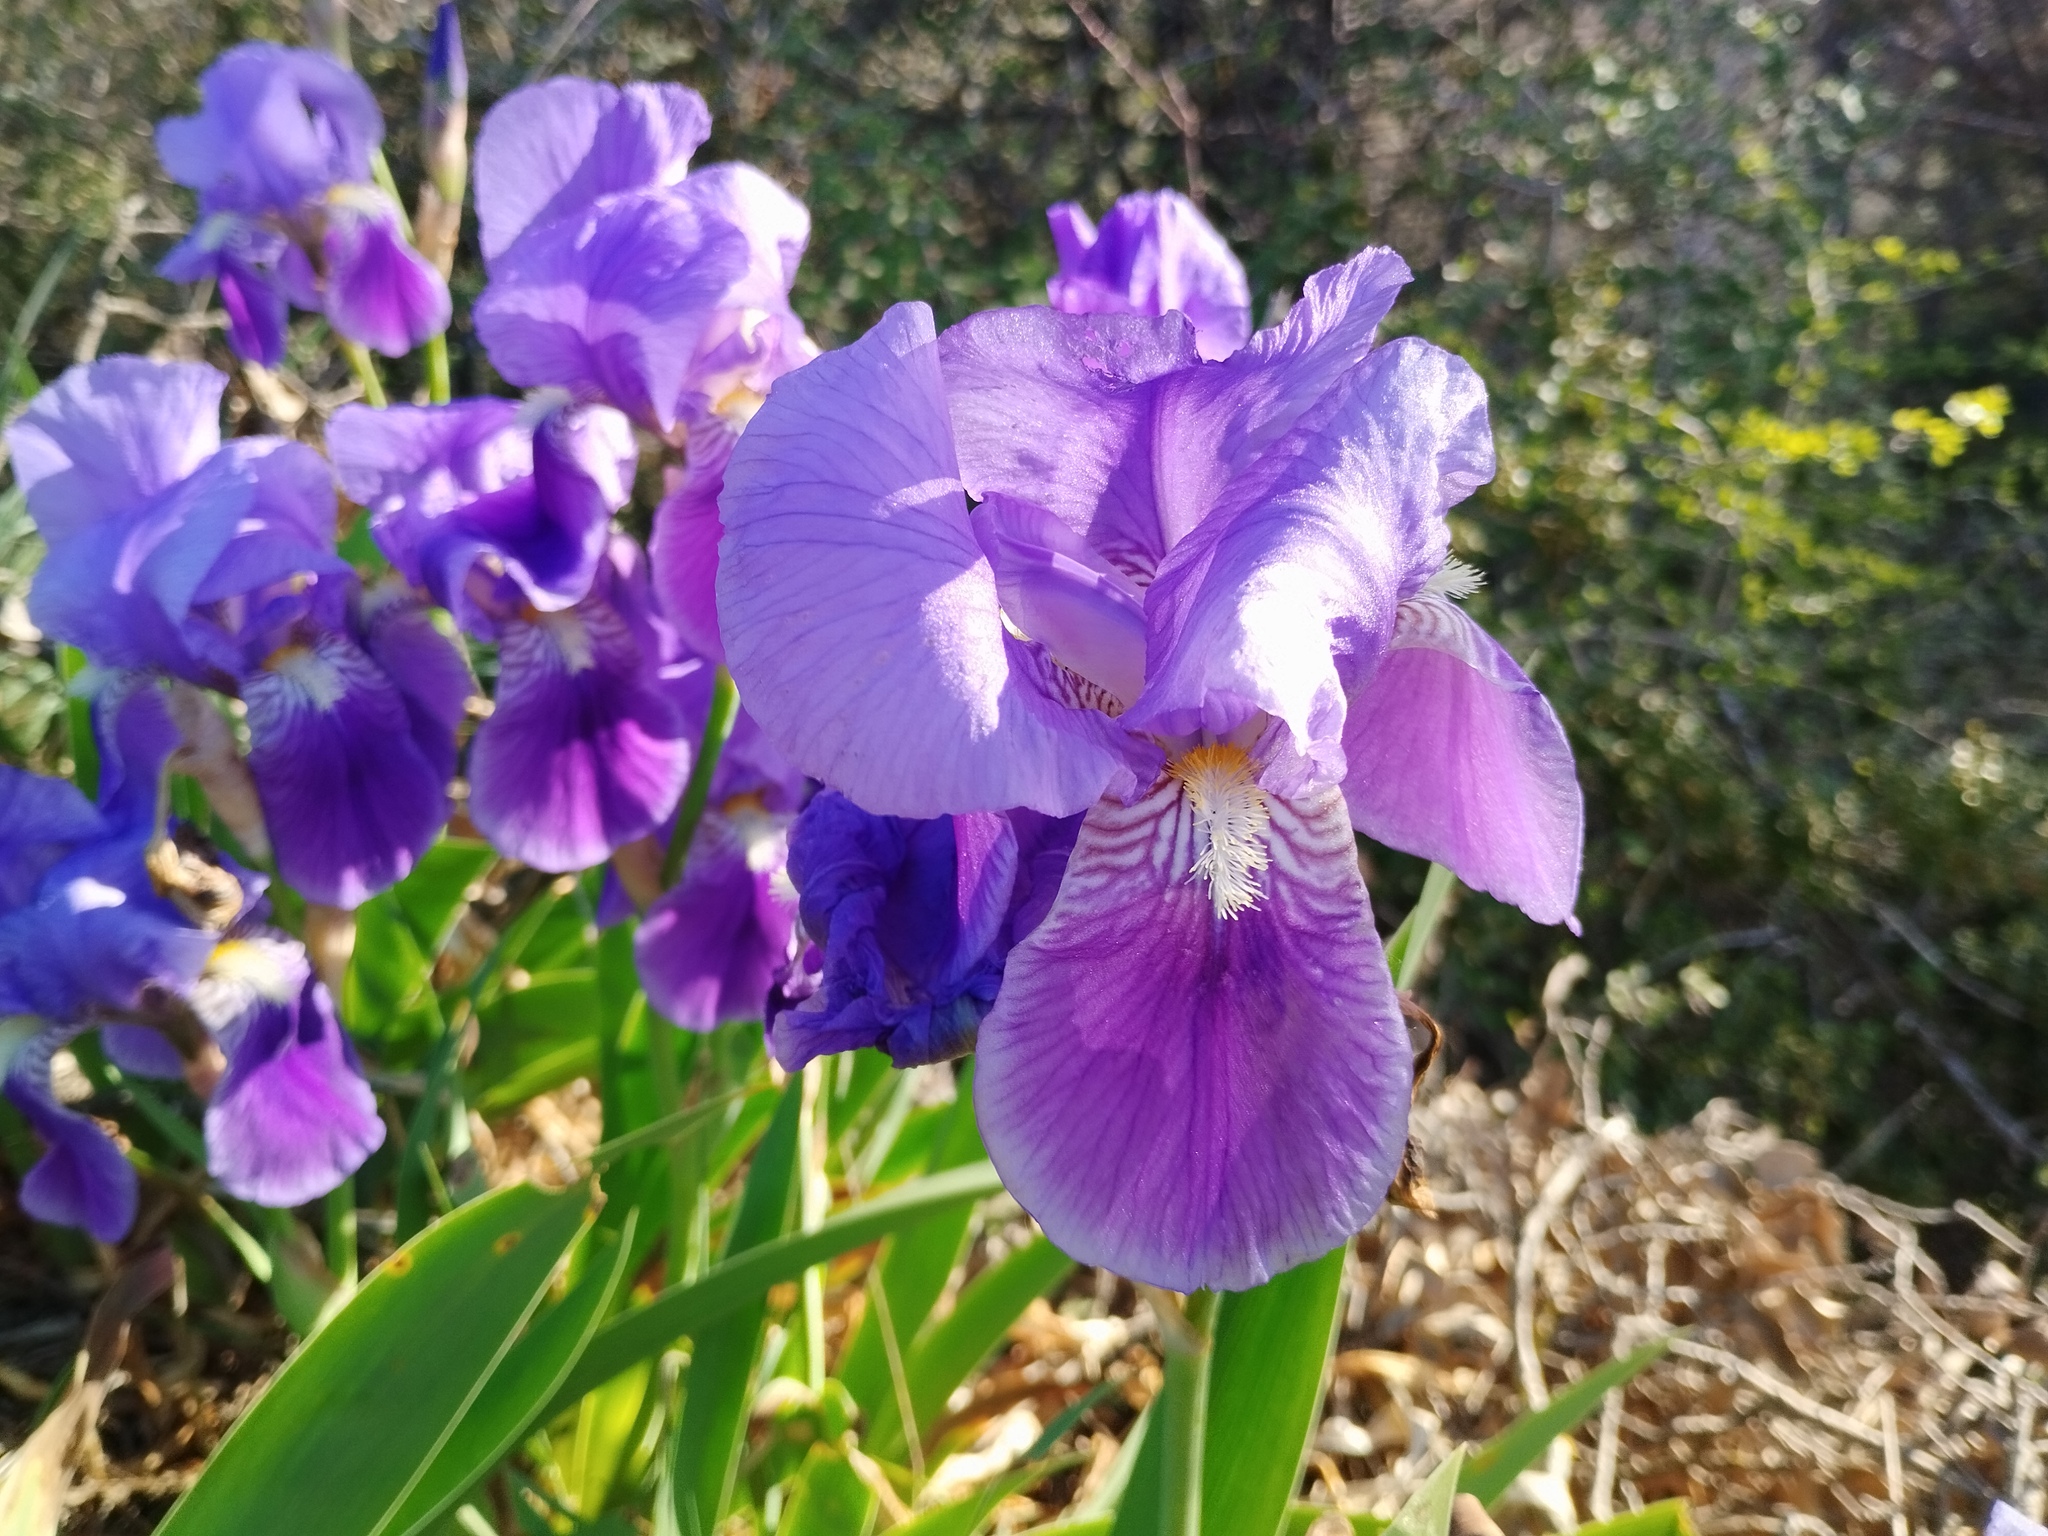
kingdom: Plantae
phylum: Tracheophyta
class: Liliopsida
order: Asparagales
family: Iridaceae
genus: Iris
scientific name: Iris germanica
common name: German iris
